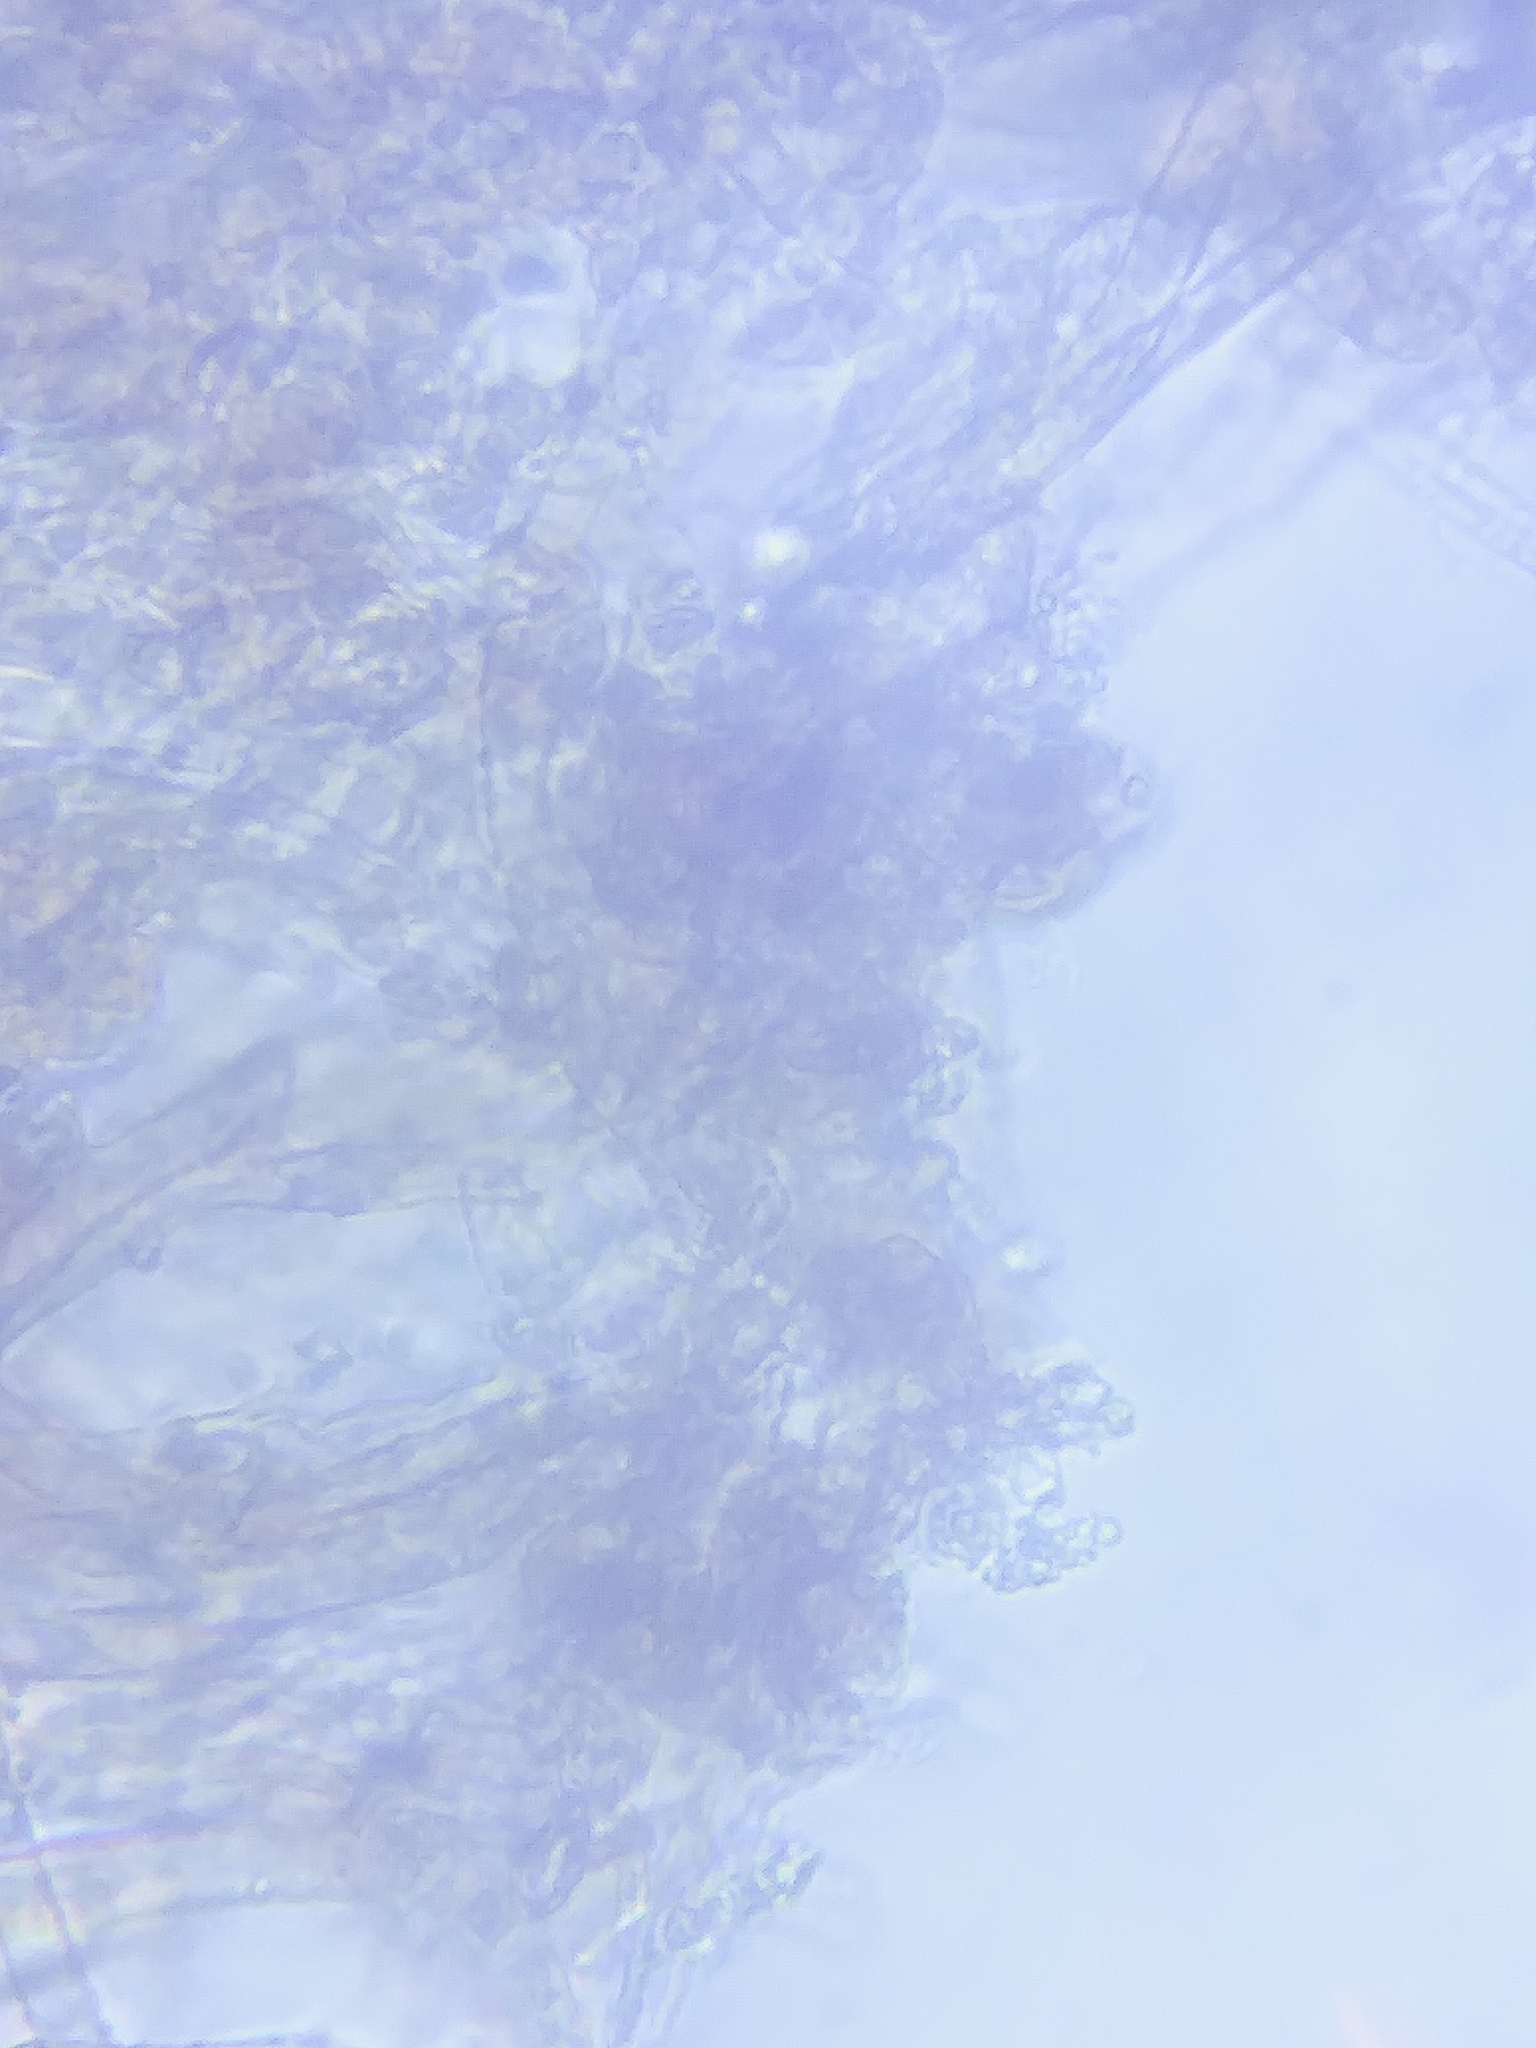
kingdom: Fungi
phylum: Basidiomycota
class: Agaricomycetes
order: Agaricales
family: Physalacriaceae
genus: Rhizomarasmius
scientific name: Rhizomarasmius pyrrhocephalus
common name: Hairy long stem marasmius
